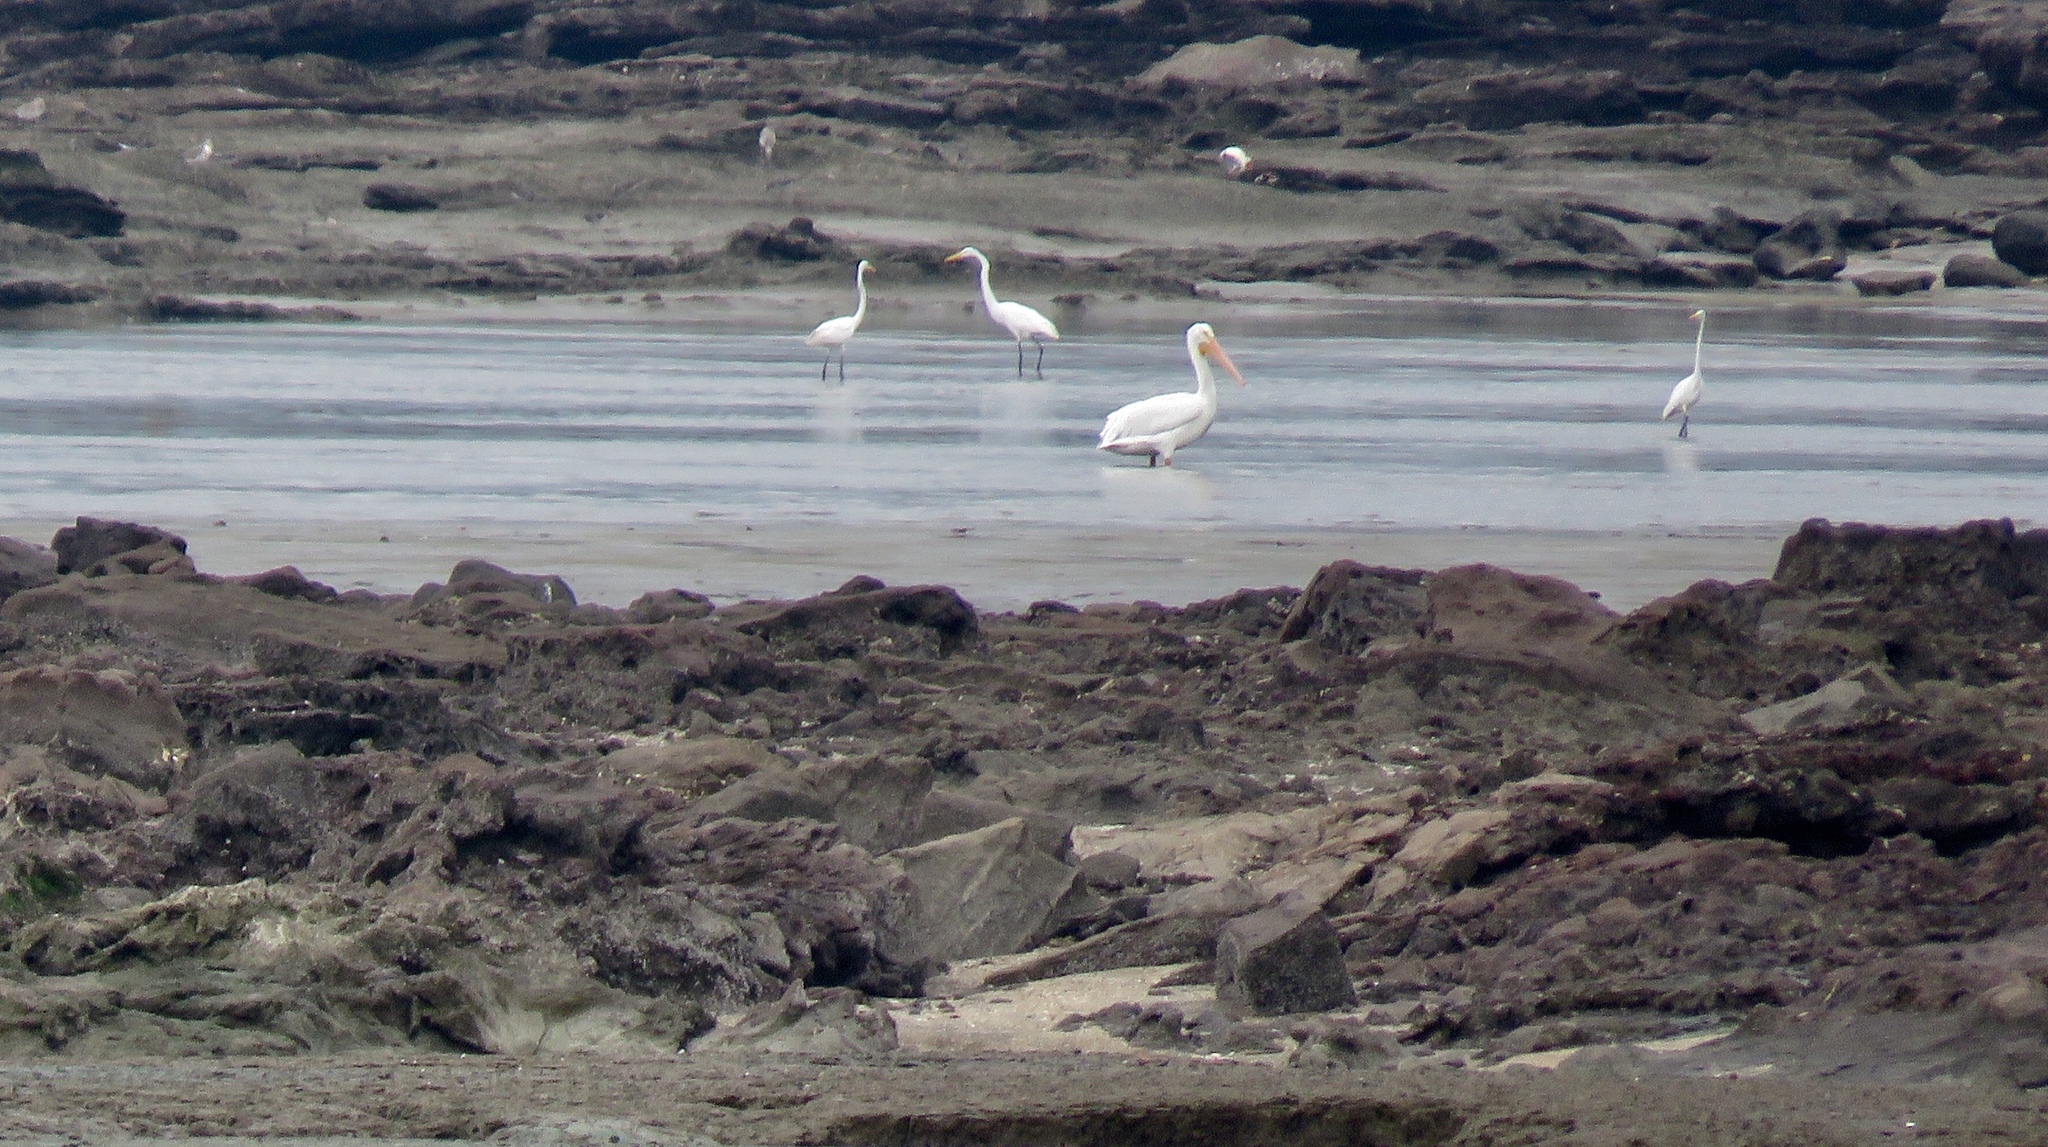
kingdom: Animalia
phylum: Chordata
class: Aves
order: Pelecaniformes
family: Pelecanidae
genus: Pelecanus
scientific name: Pelecanus erythrorhynchos
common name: American white pelican
